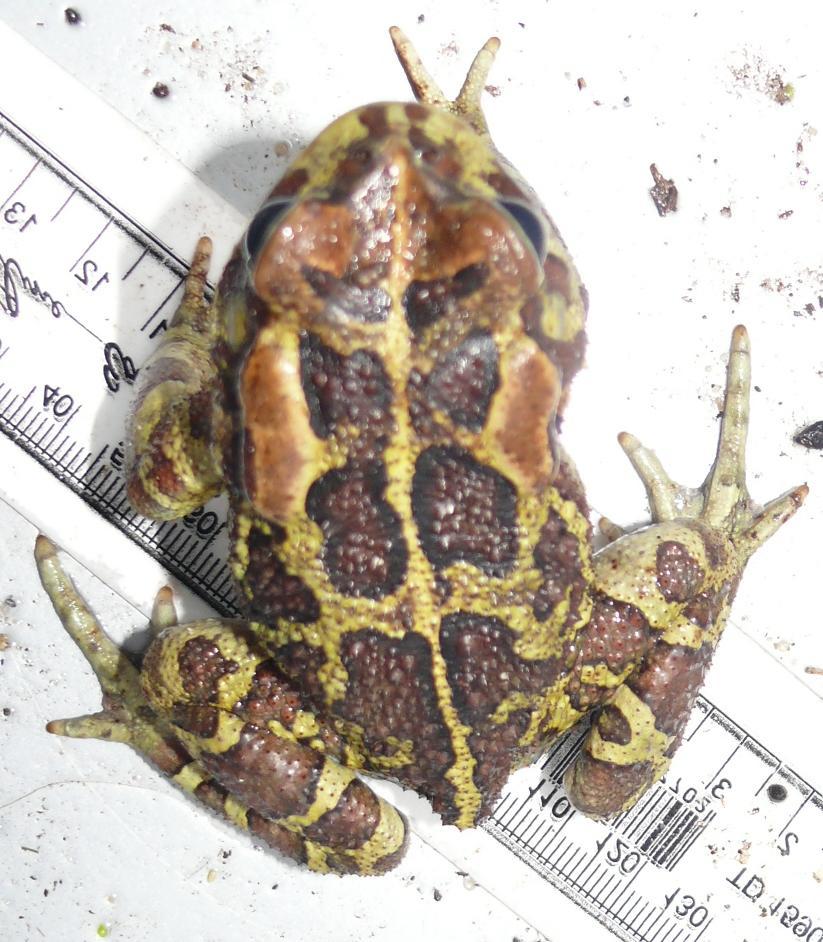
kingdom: Animalia
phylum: Chordata
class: Amphibia
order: Anura
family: Bufonidae
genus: Sclerophrys
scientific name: Sclerophrys pantherina
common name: Panther toad
